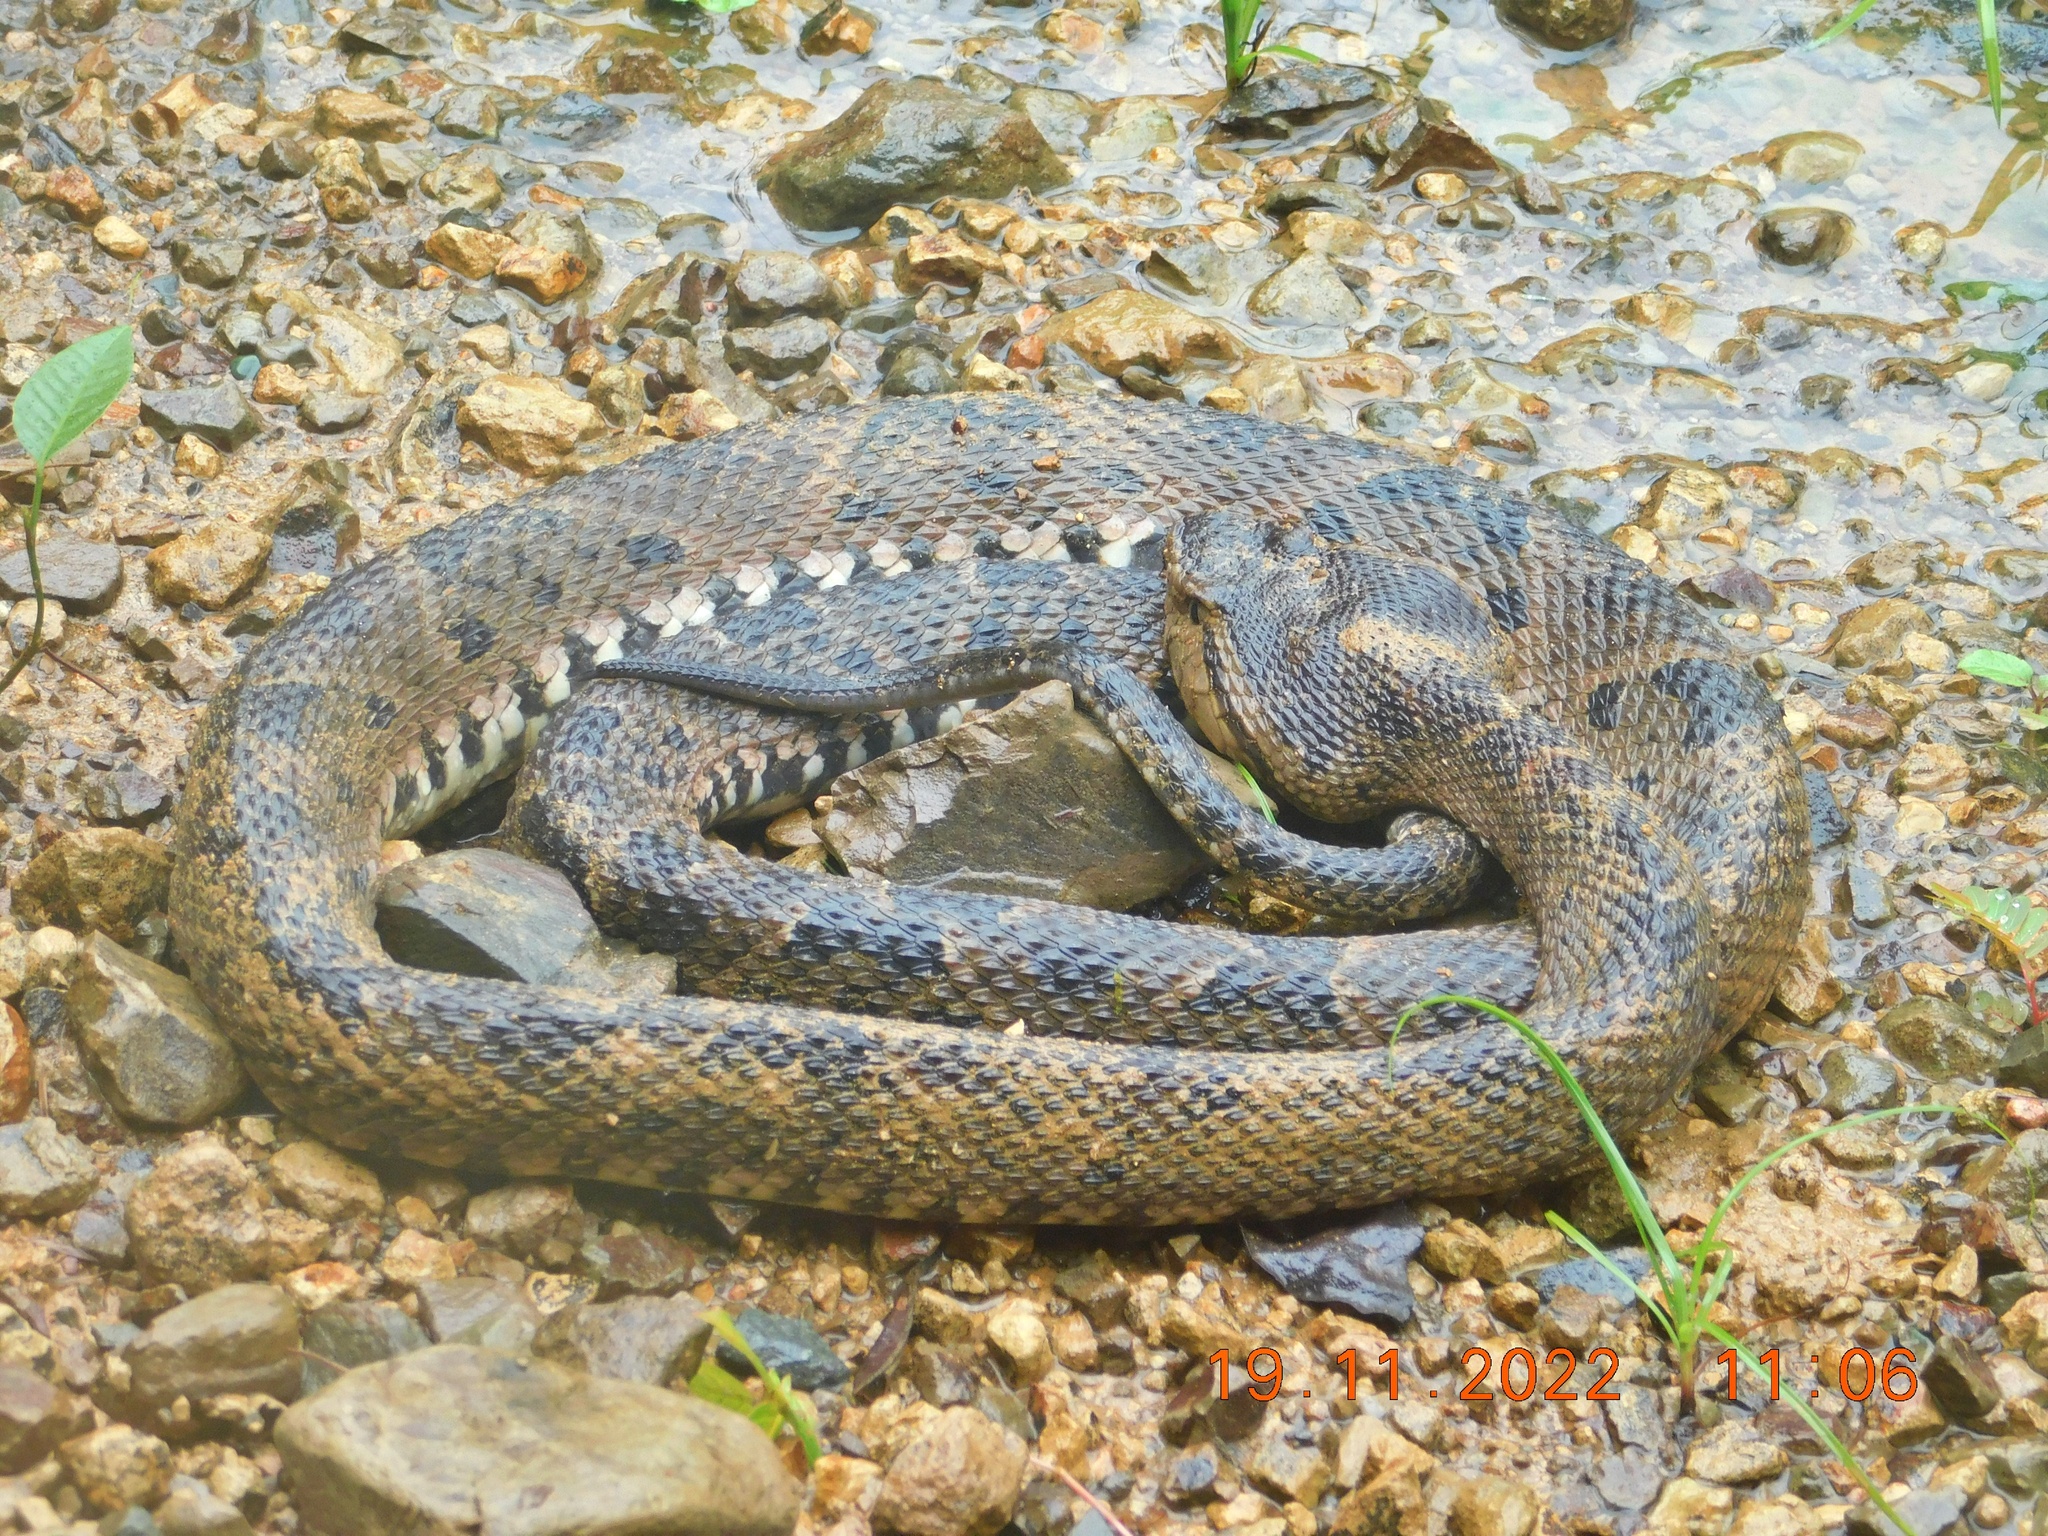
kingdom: Animalia
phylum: Chordata
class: Squamata
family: Viperidae
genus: Bothrops
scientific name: Bothrops asper
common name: Terciopelo
